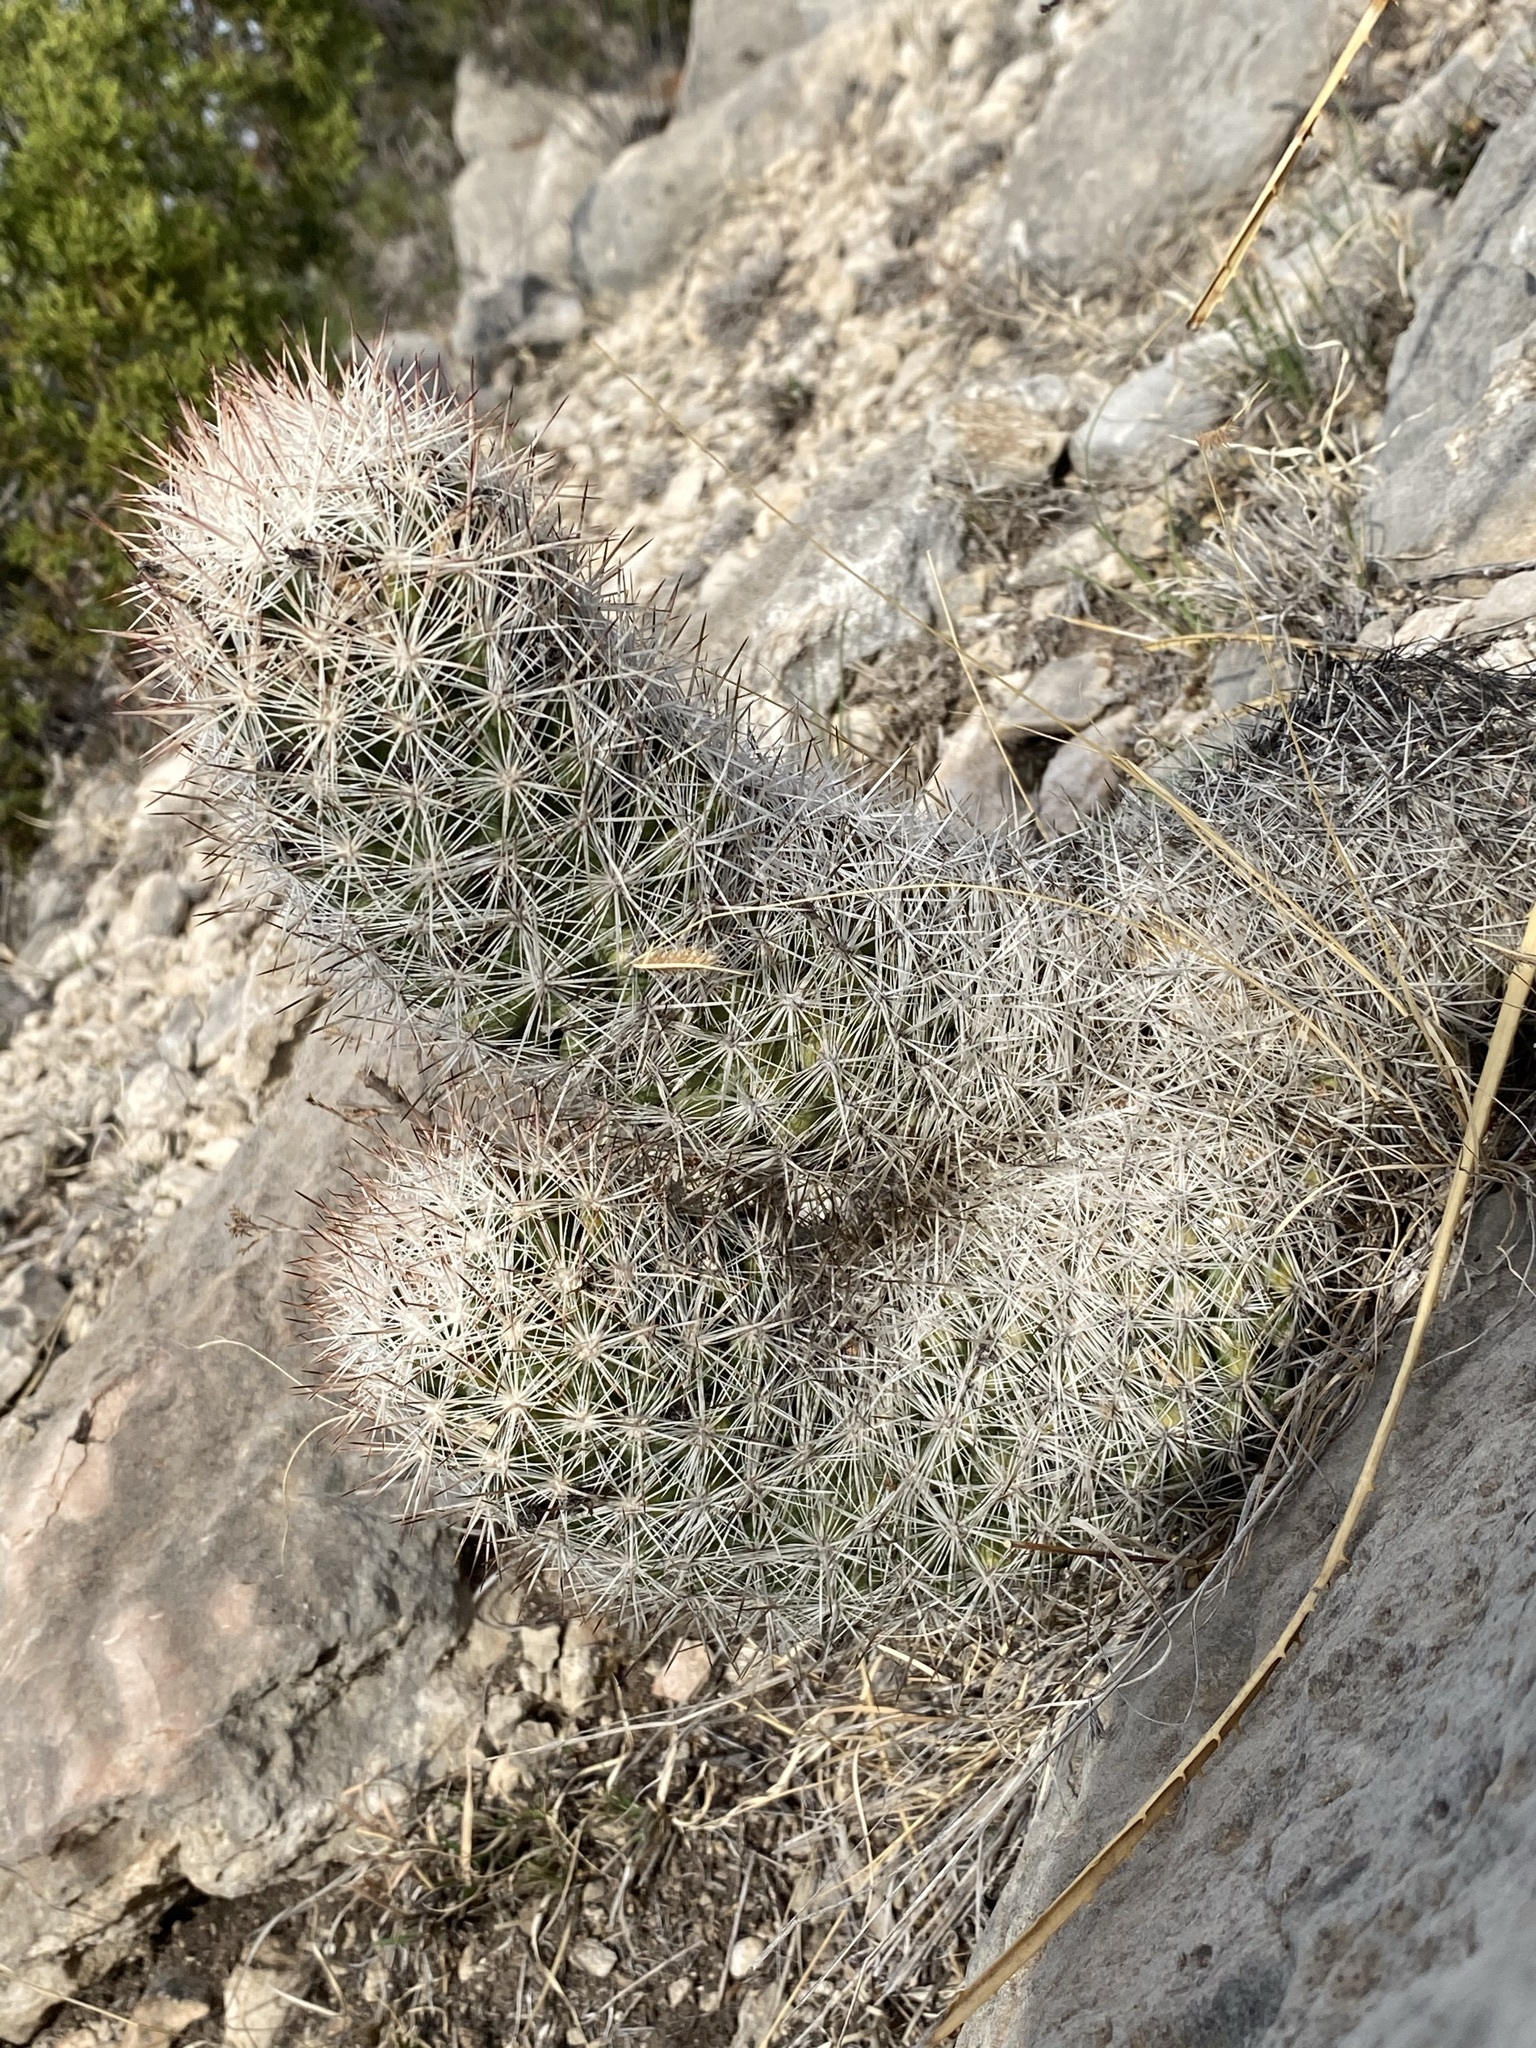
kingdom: Plantae
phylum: Tracheophyta
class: Magnoliopsida
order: Caryophyllales
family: Cactaceae
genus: Pelecyphora
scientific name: Pelecyphora tuberculosa
